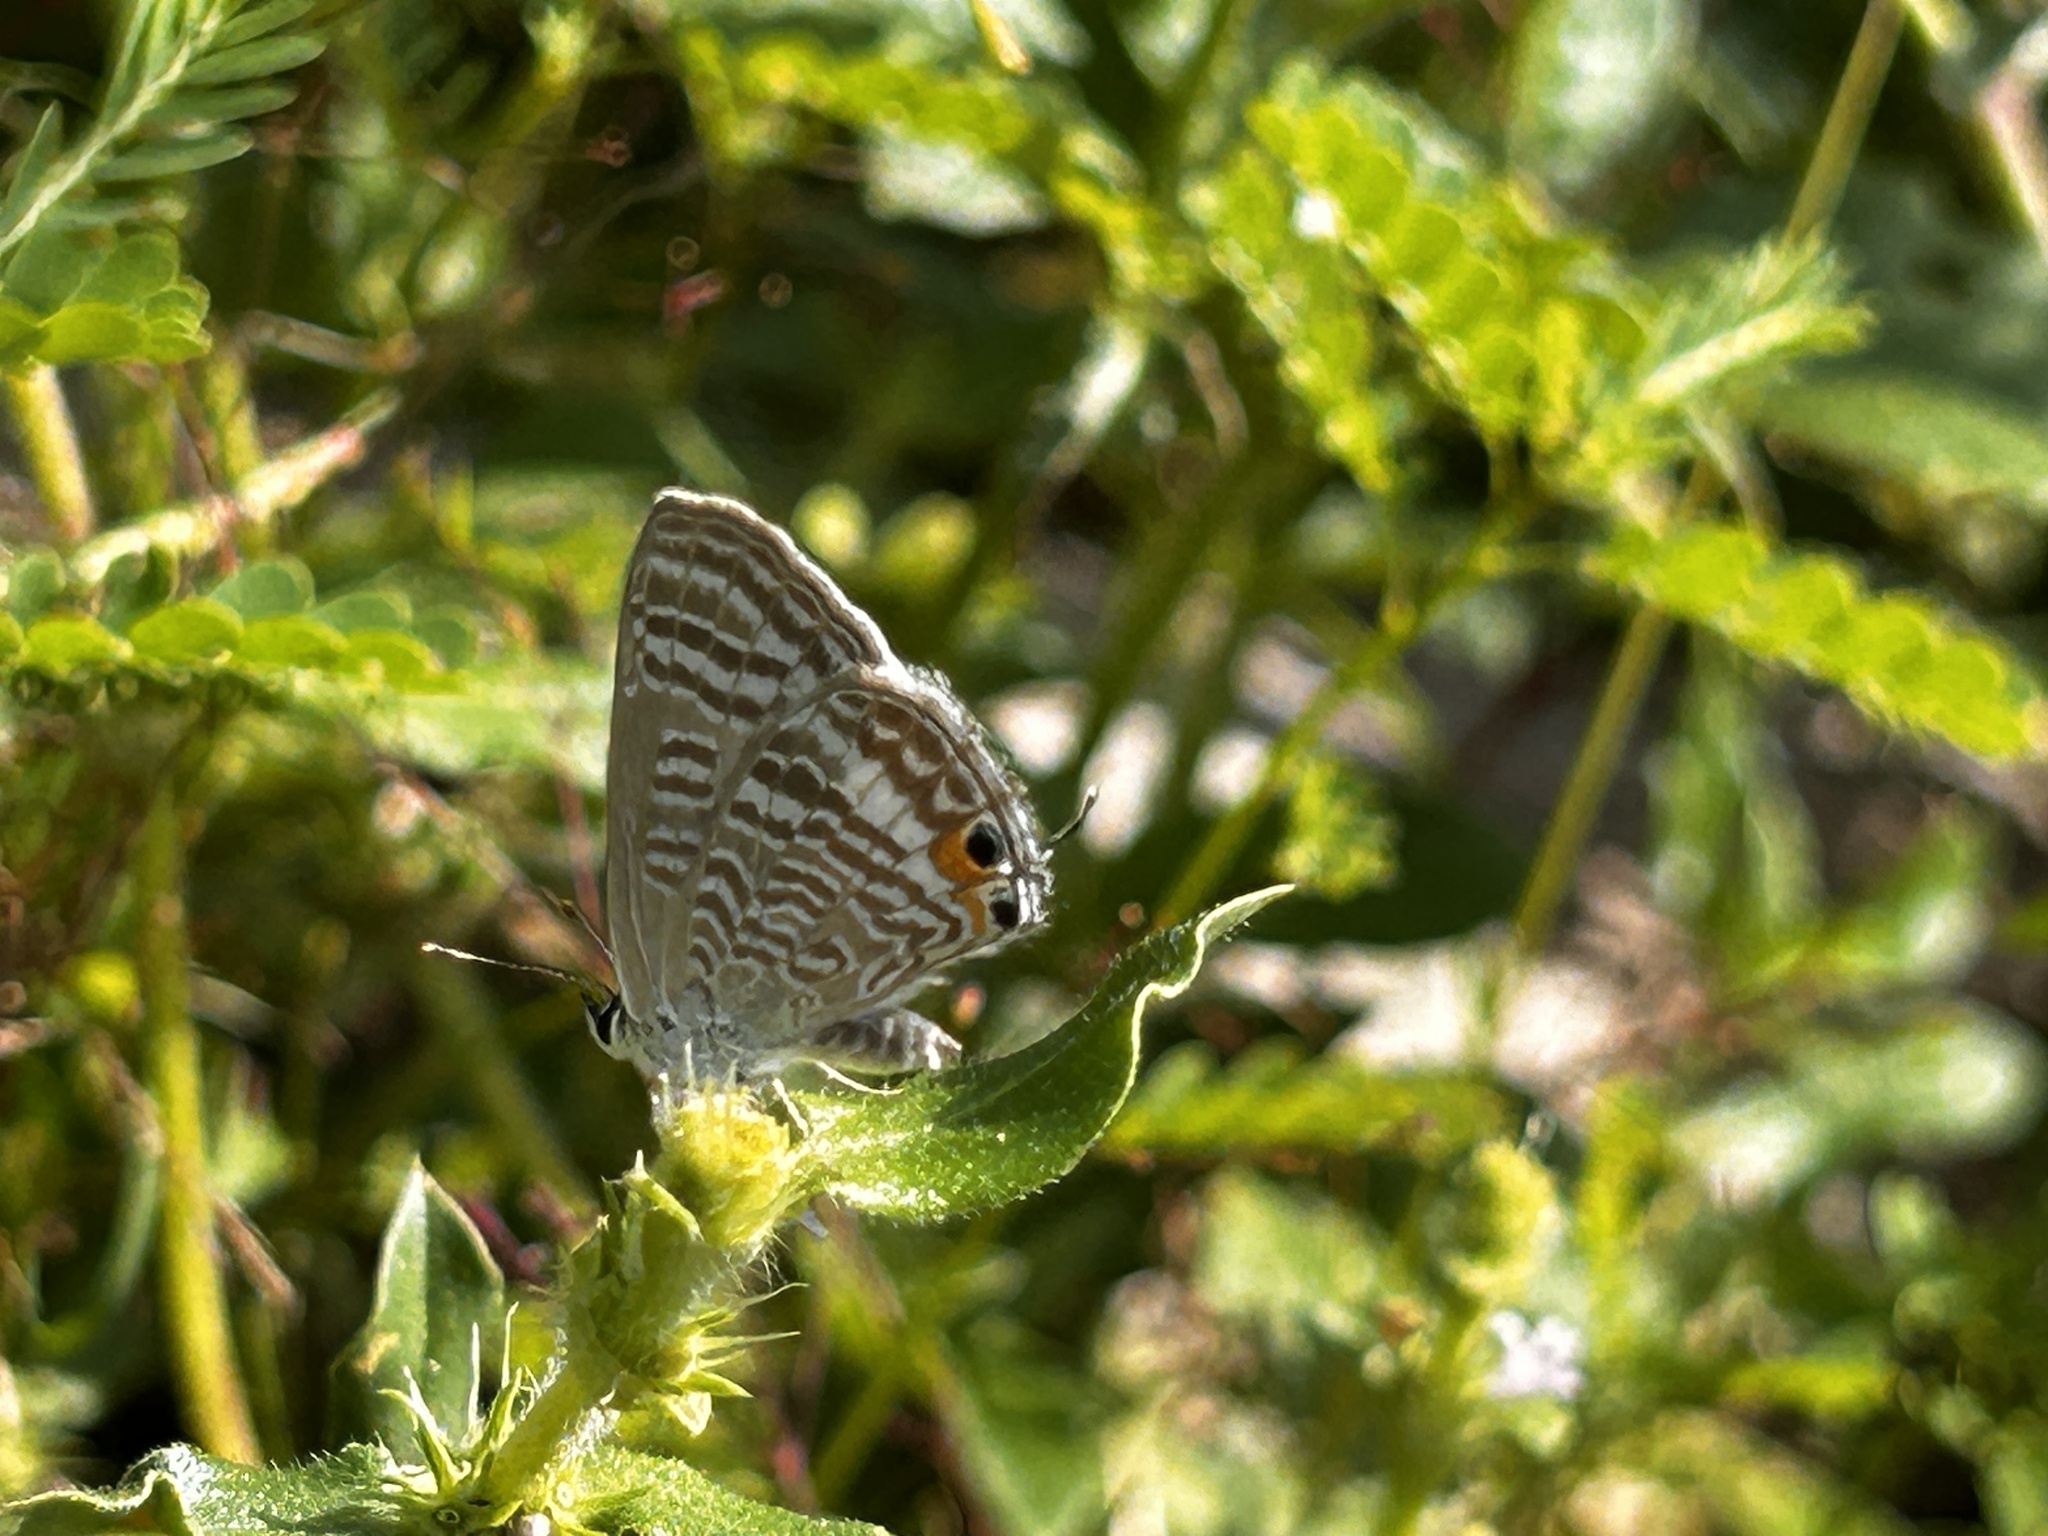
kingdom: Animalia
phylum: Arthropoda
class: Insecta
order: Lepidoptera
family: Lycaenidae
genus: Lampides
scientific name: Lampides boeticus
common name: Long-tailed blue
